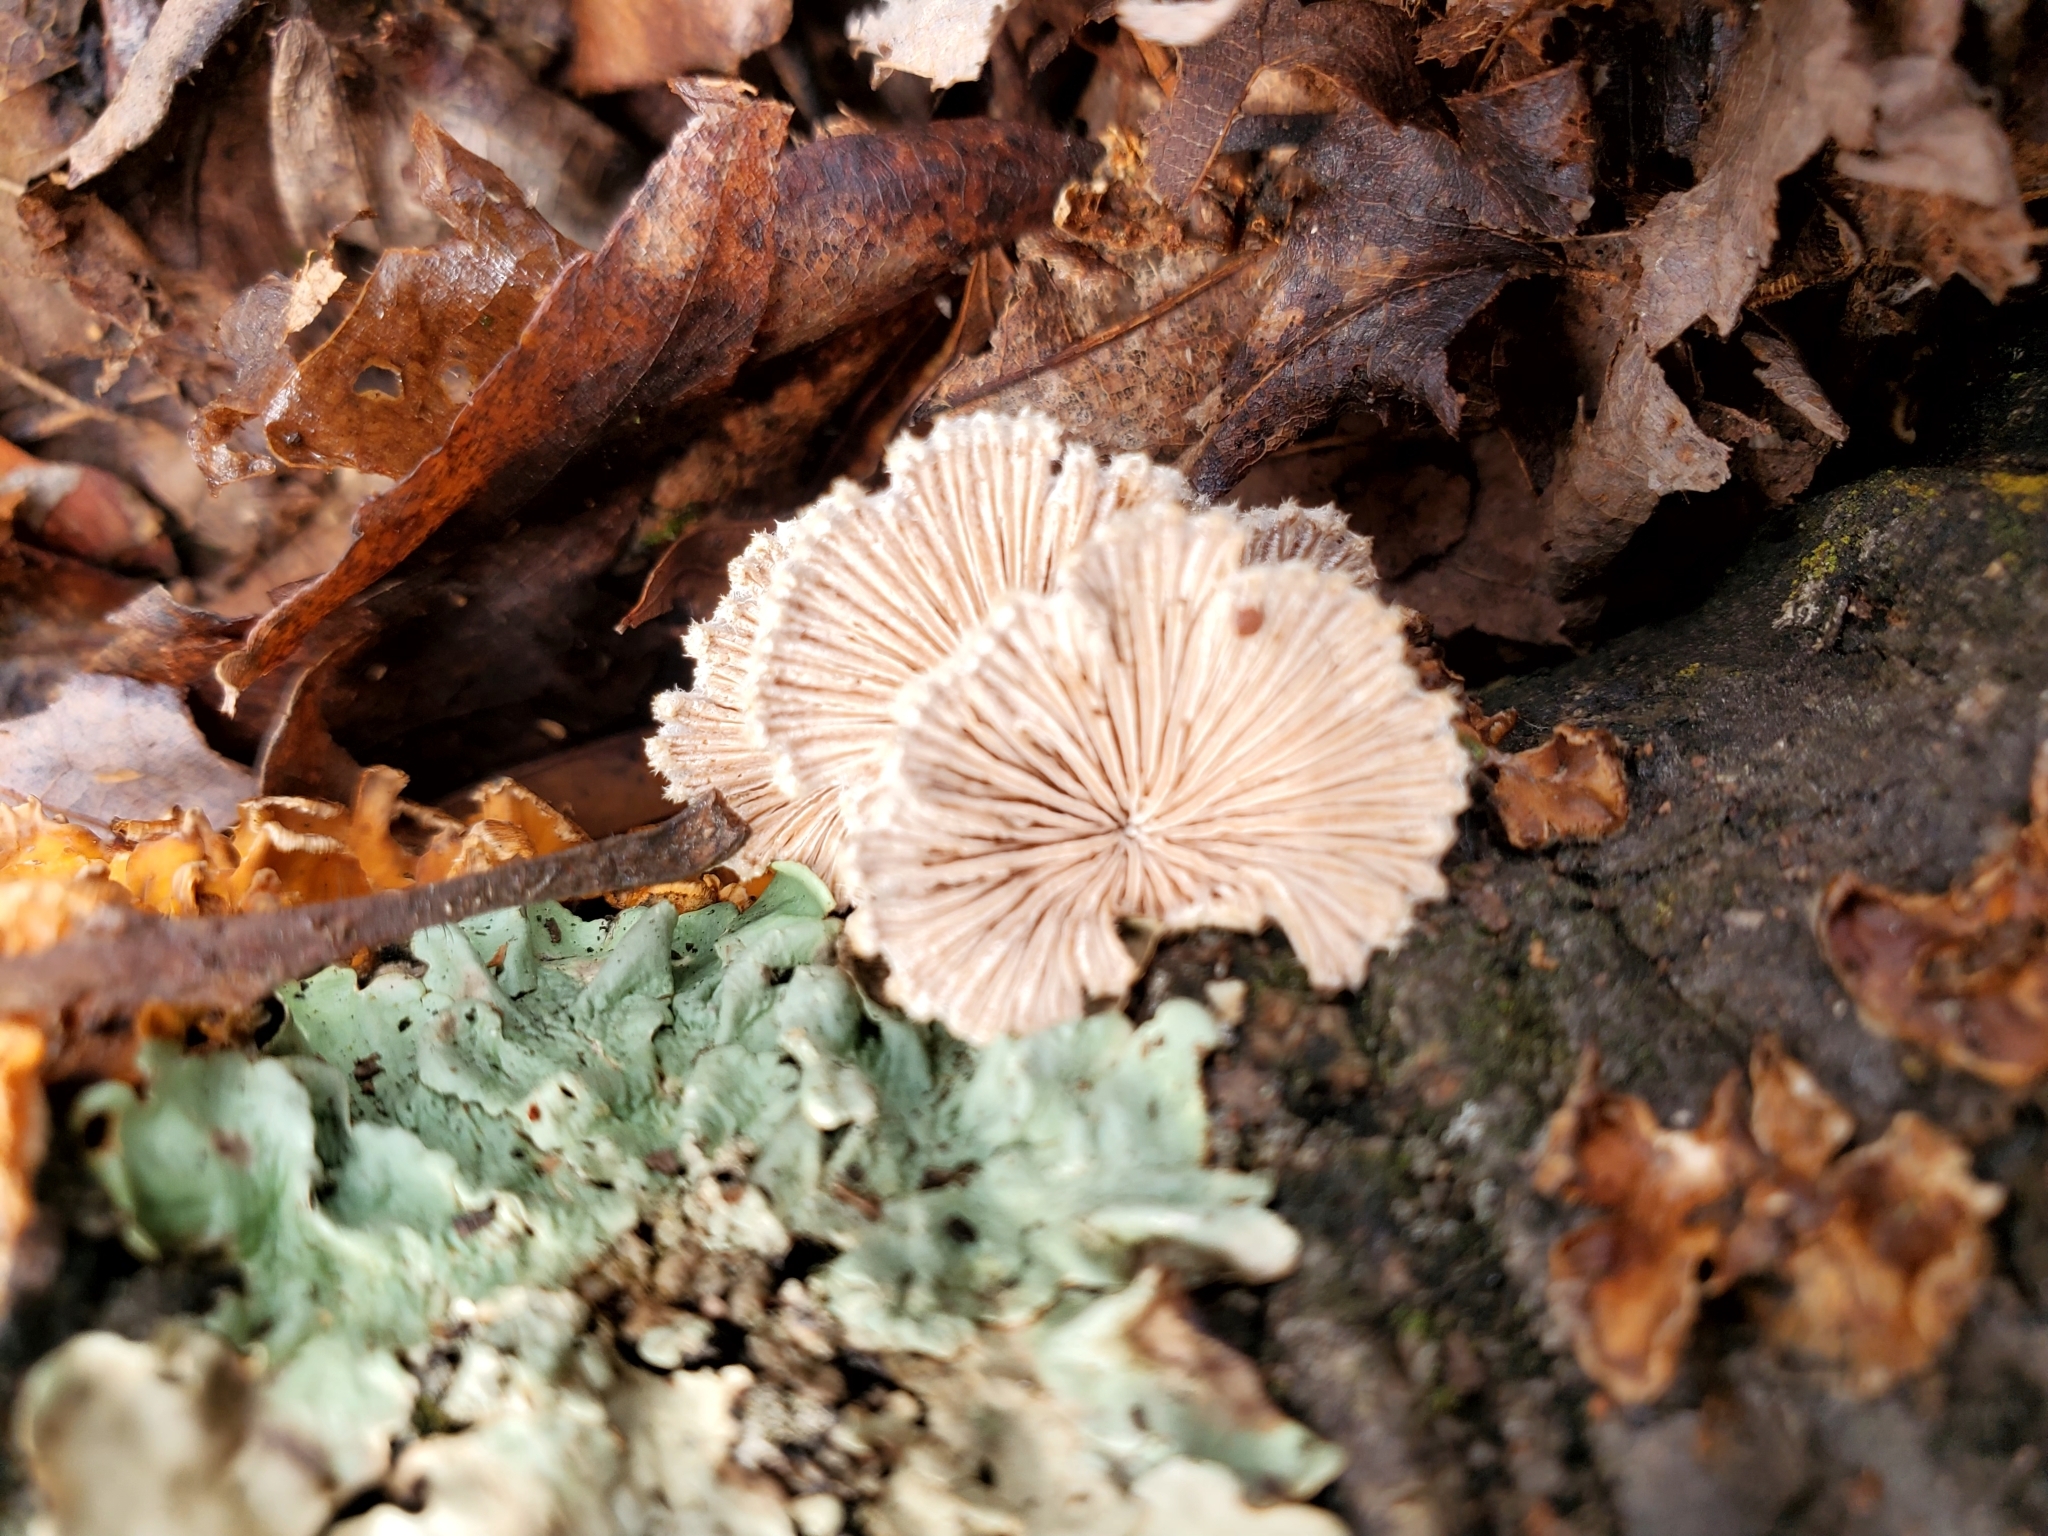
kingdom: Fungi
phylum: Basidiomycota
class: Agaricomycetes
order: Agaricales
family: Schizophyllaceae
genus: Schizophyllum
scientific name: Schizophyllum commune
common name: Common porecrust
